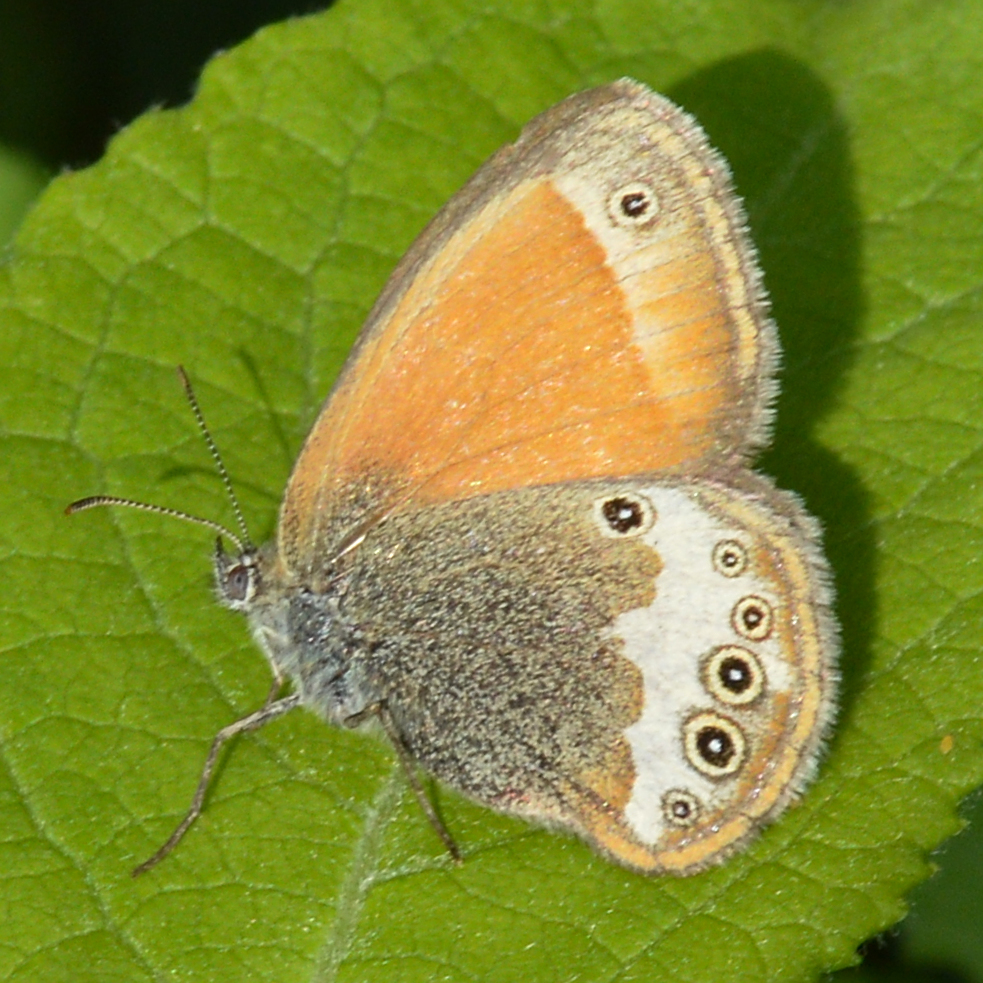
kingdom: Animalia
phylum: Arthropoda
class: Insecta
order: Lepidoptera
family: Nymphalidae
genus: Coenonympha
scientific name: Coenonympha arcania
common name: Pearly heath
